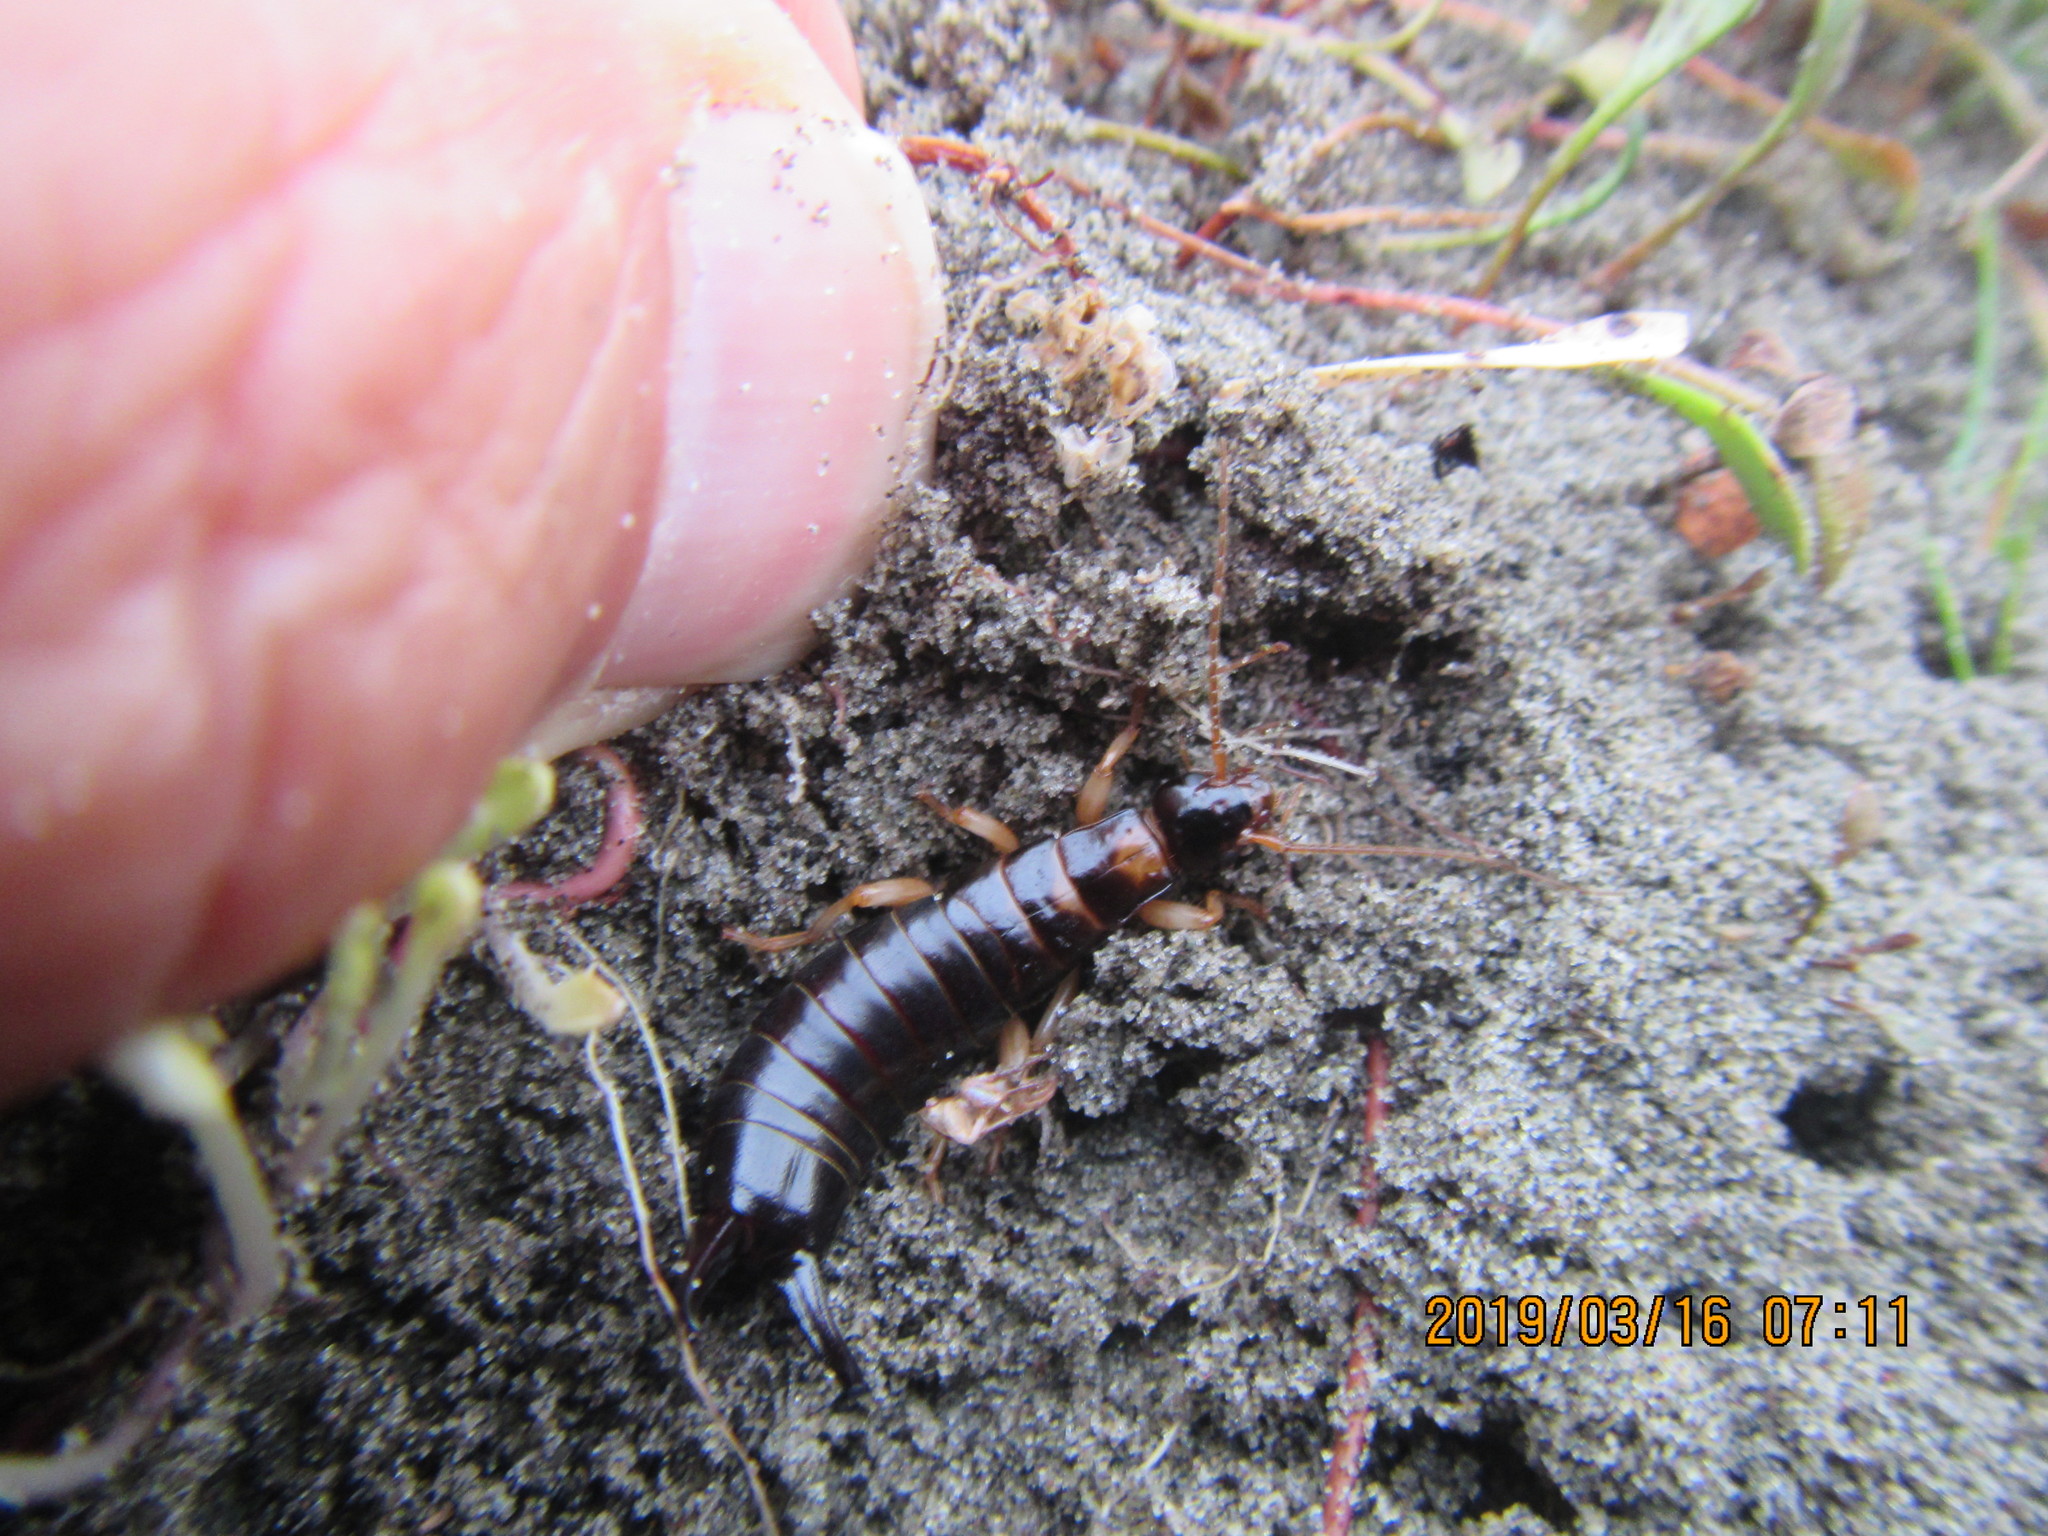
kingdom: Animalia
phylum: Arthropoda
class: Insecta
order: Dermaptera
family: Anisolabididae
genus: Anisolabis
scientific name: Anisolabis littorea
